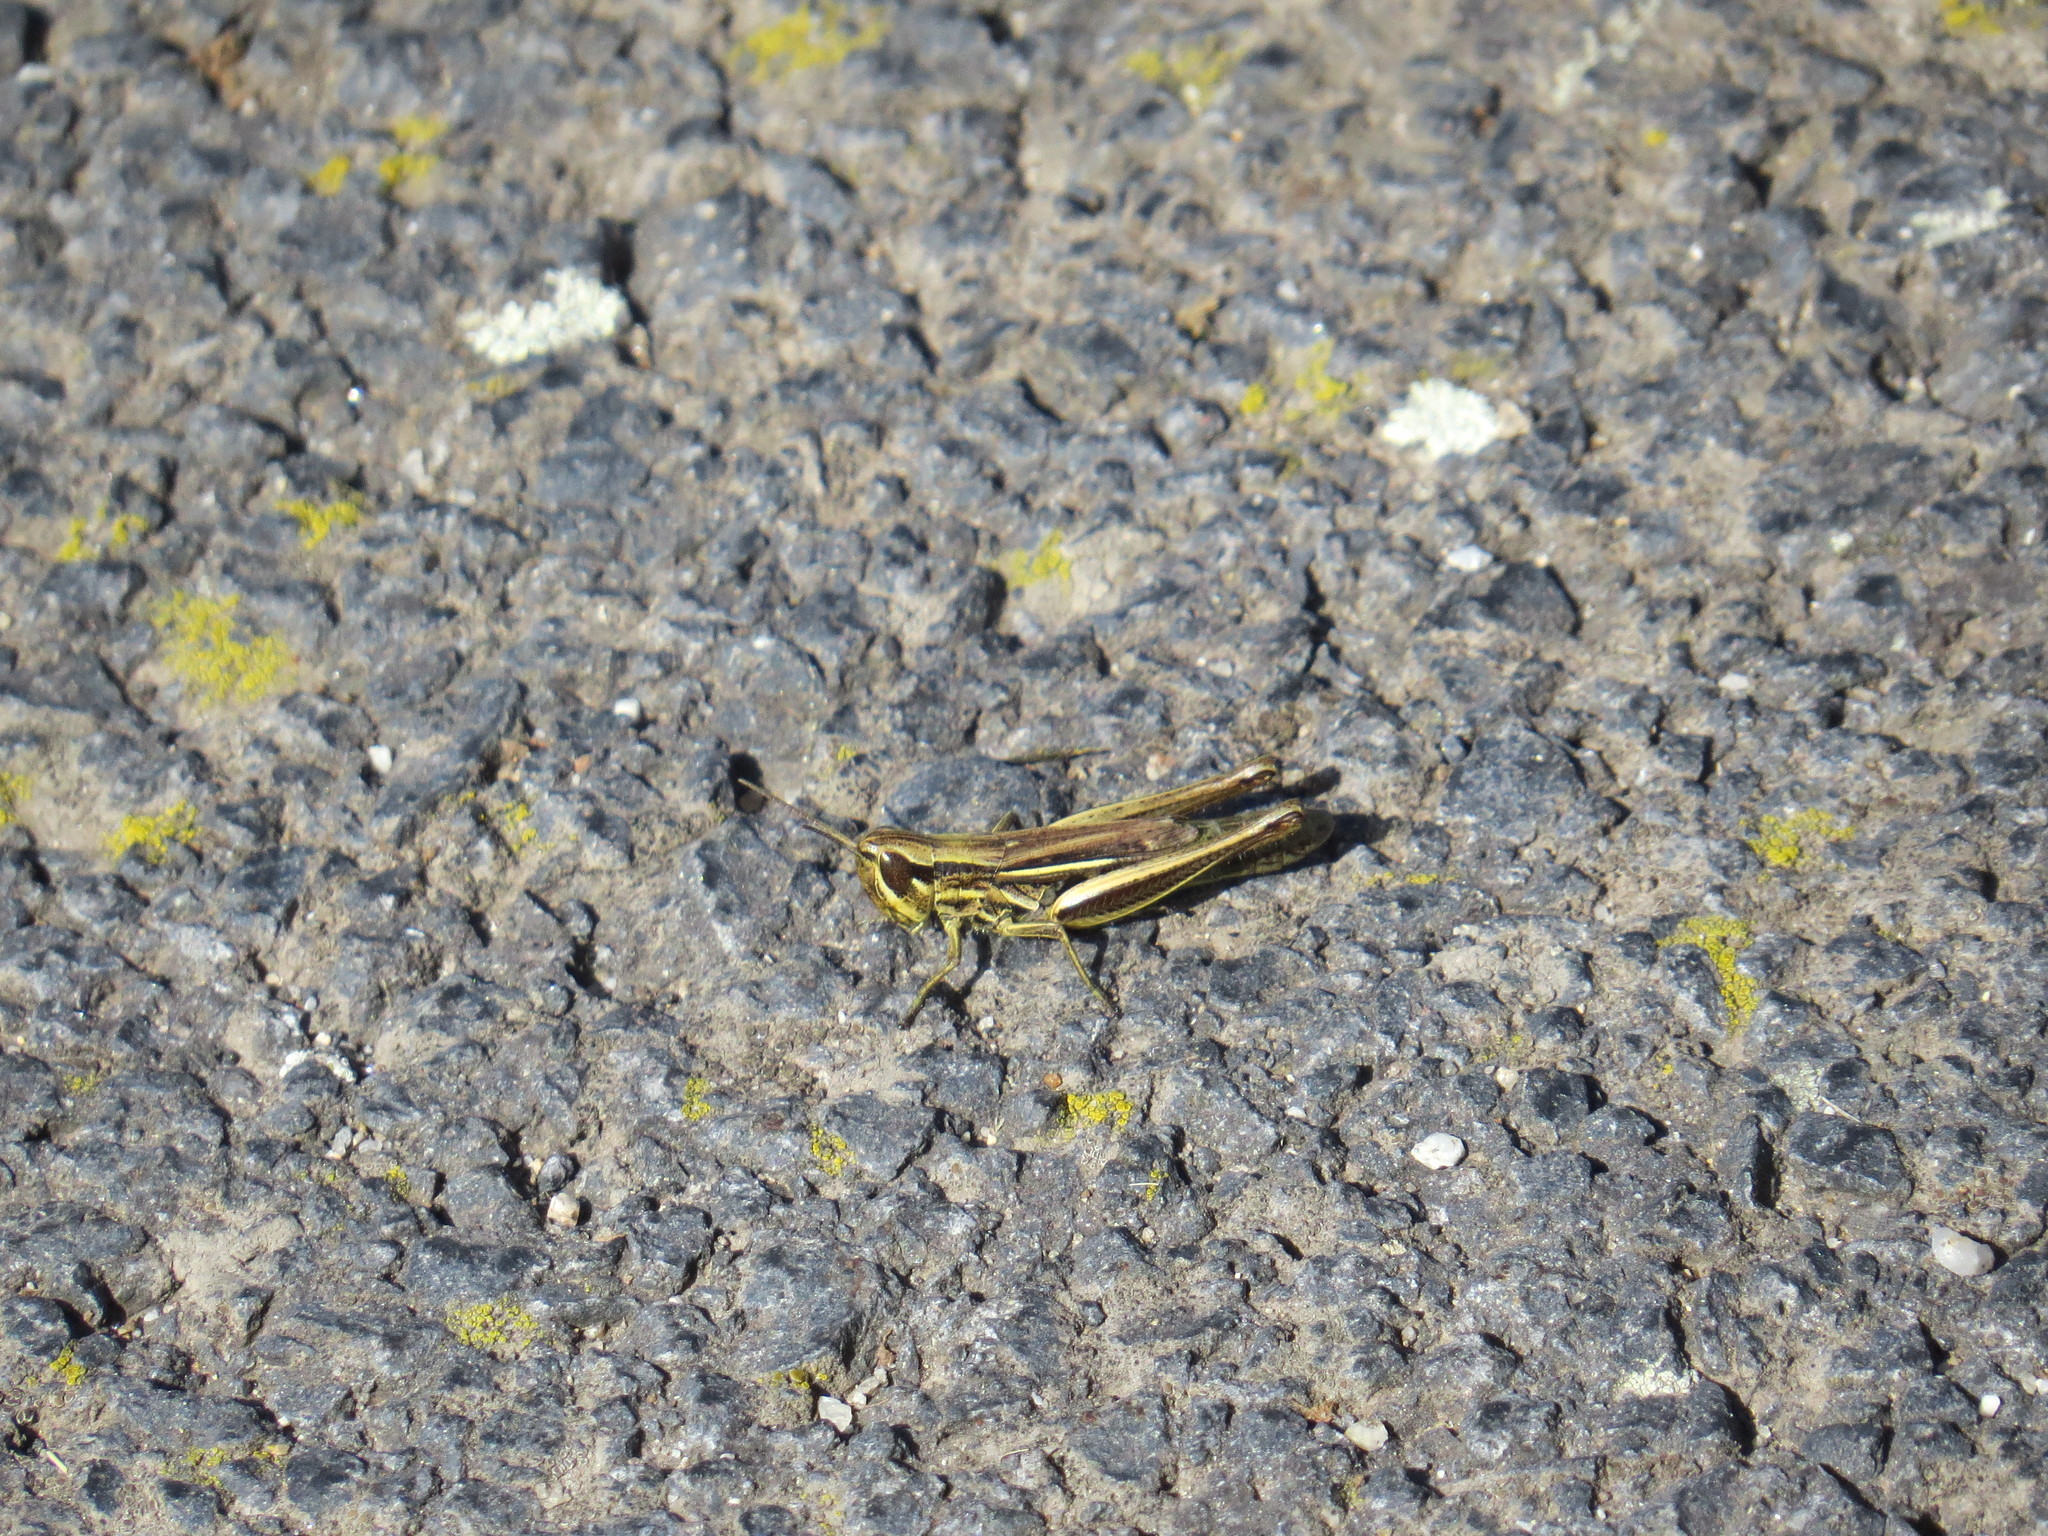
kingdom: Animalia
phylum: Arthropoda
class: Insecta
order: Orthoptera
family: Acrididae
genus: Euchorthippus
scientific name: Euchorthippus declivus
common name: Common straw grasshopper
